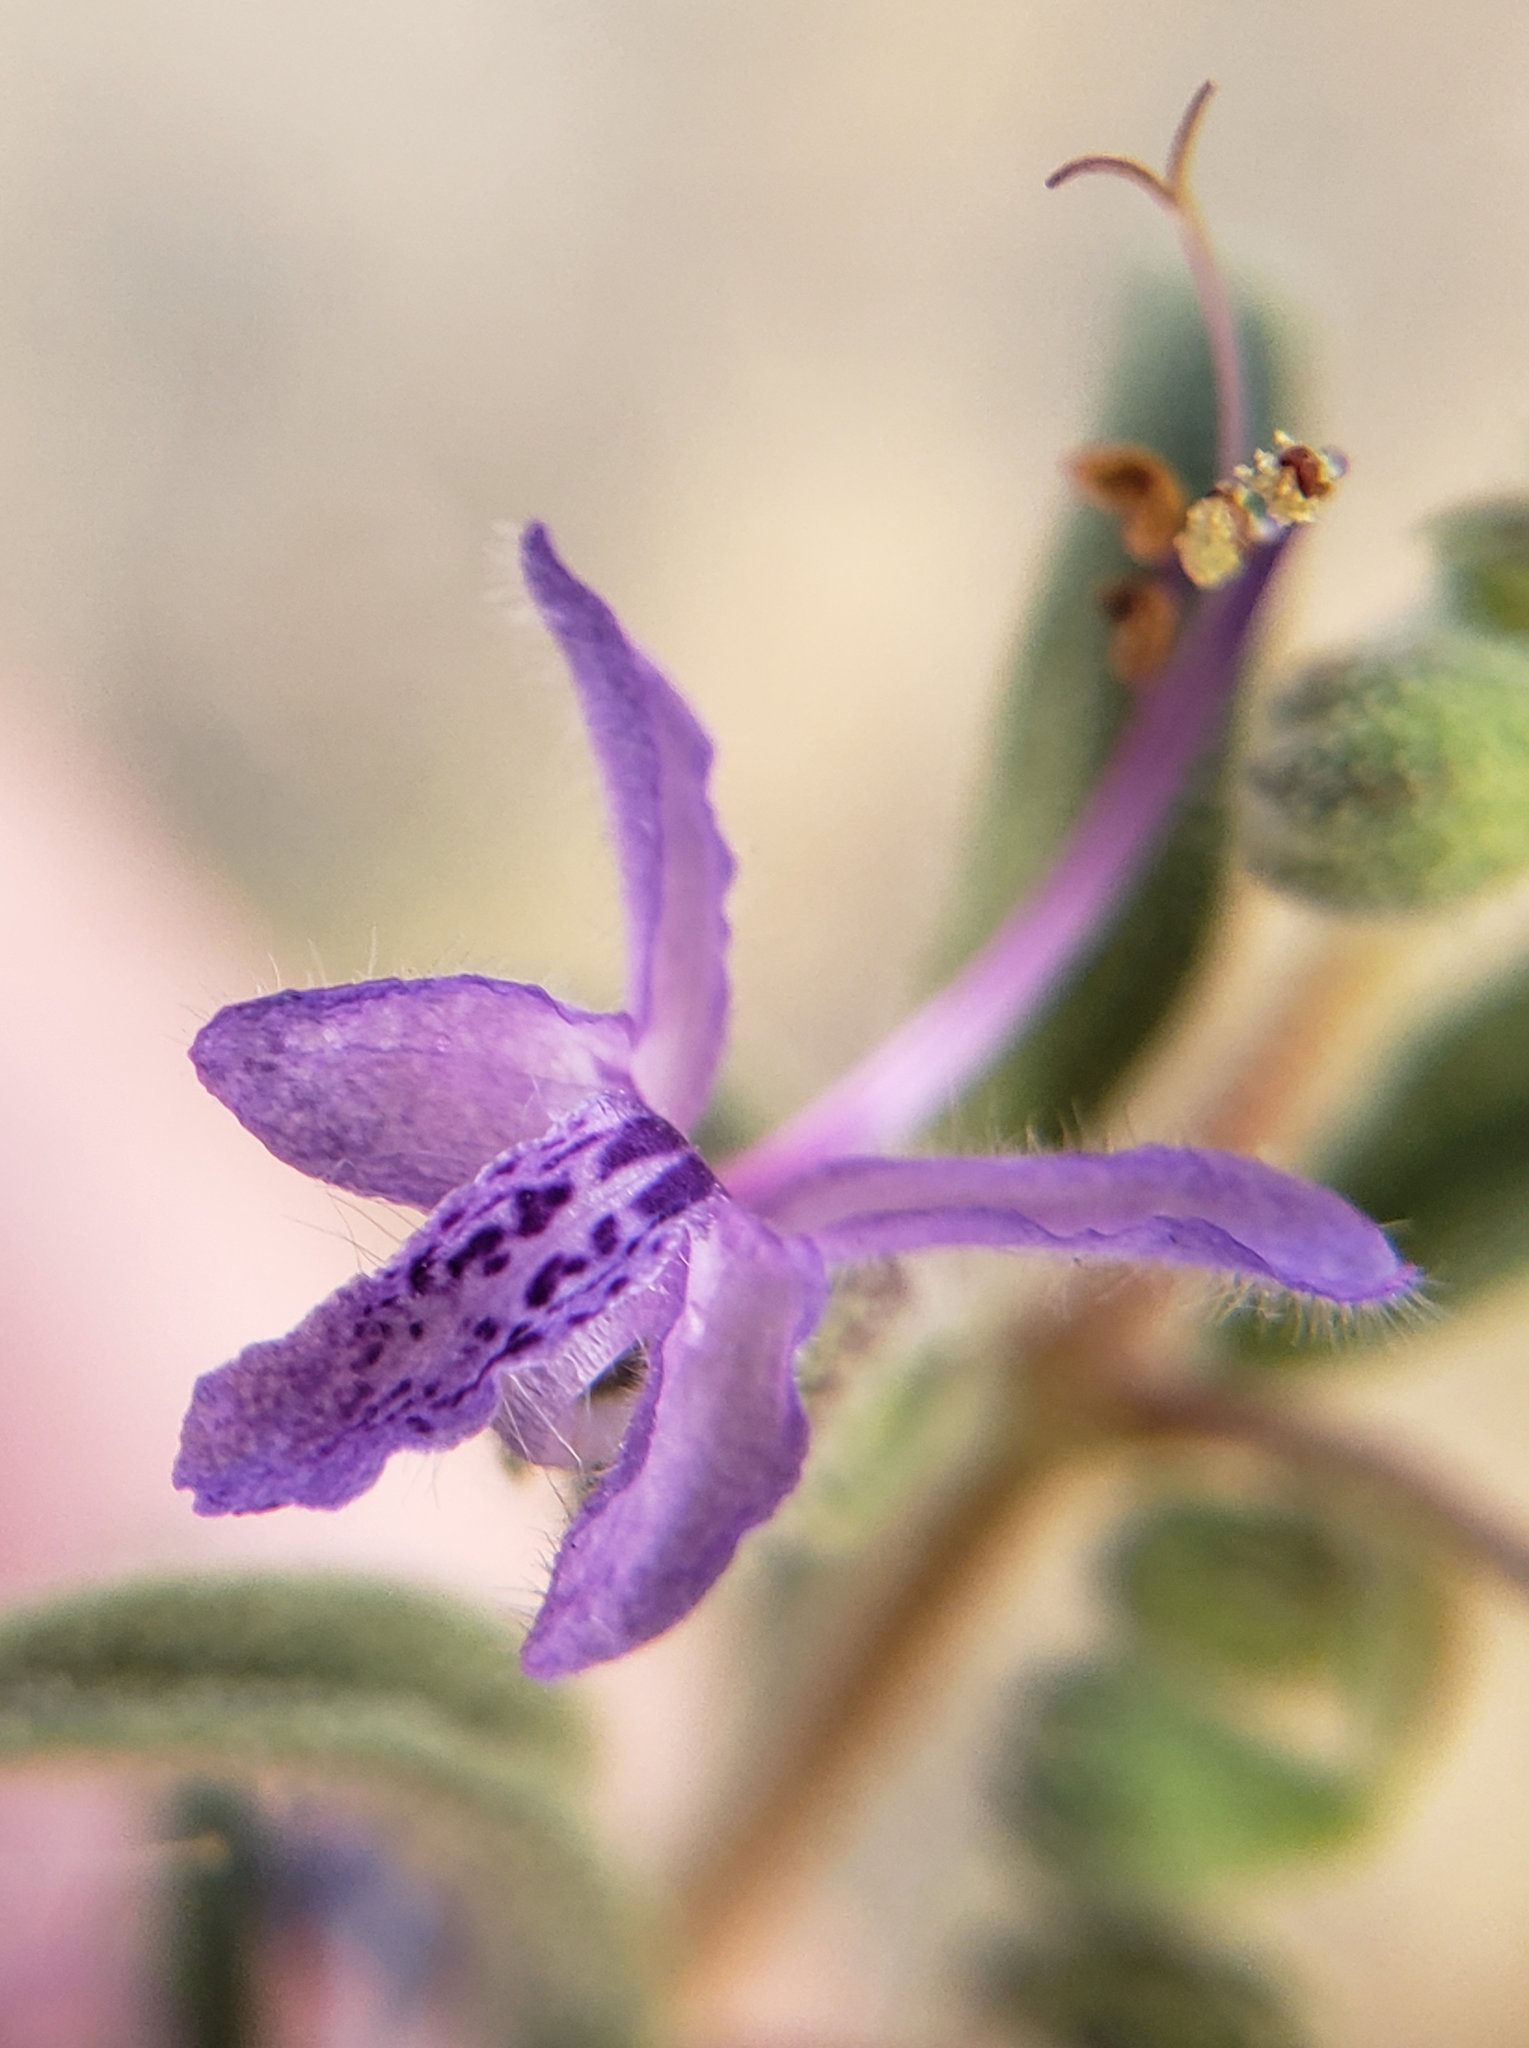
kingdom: Plantae
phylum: Tracheophyta
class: Magnoliopsida
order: Lamiales
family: Lamiaceae
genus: Trichostema
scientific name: Trichostema lanceolatum
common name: Vinegar-weed
